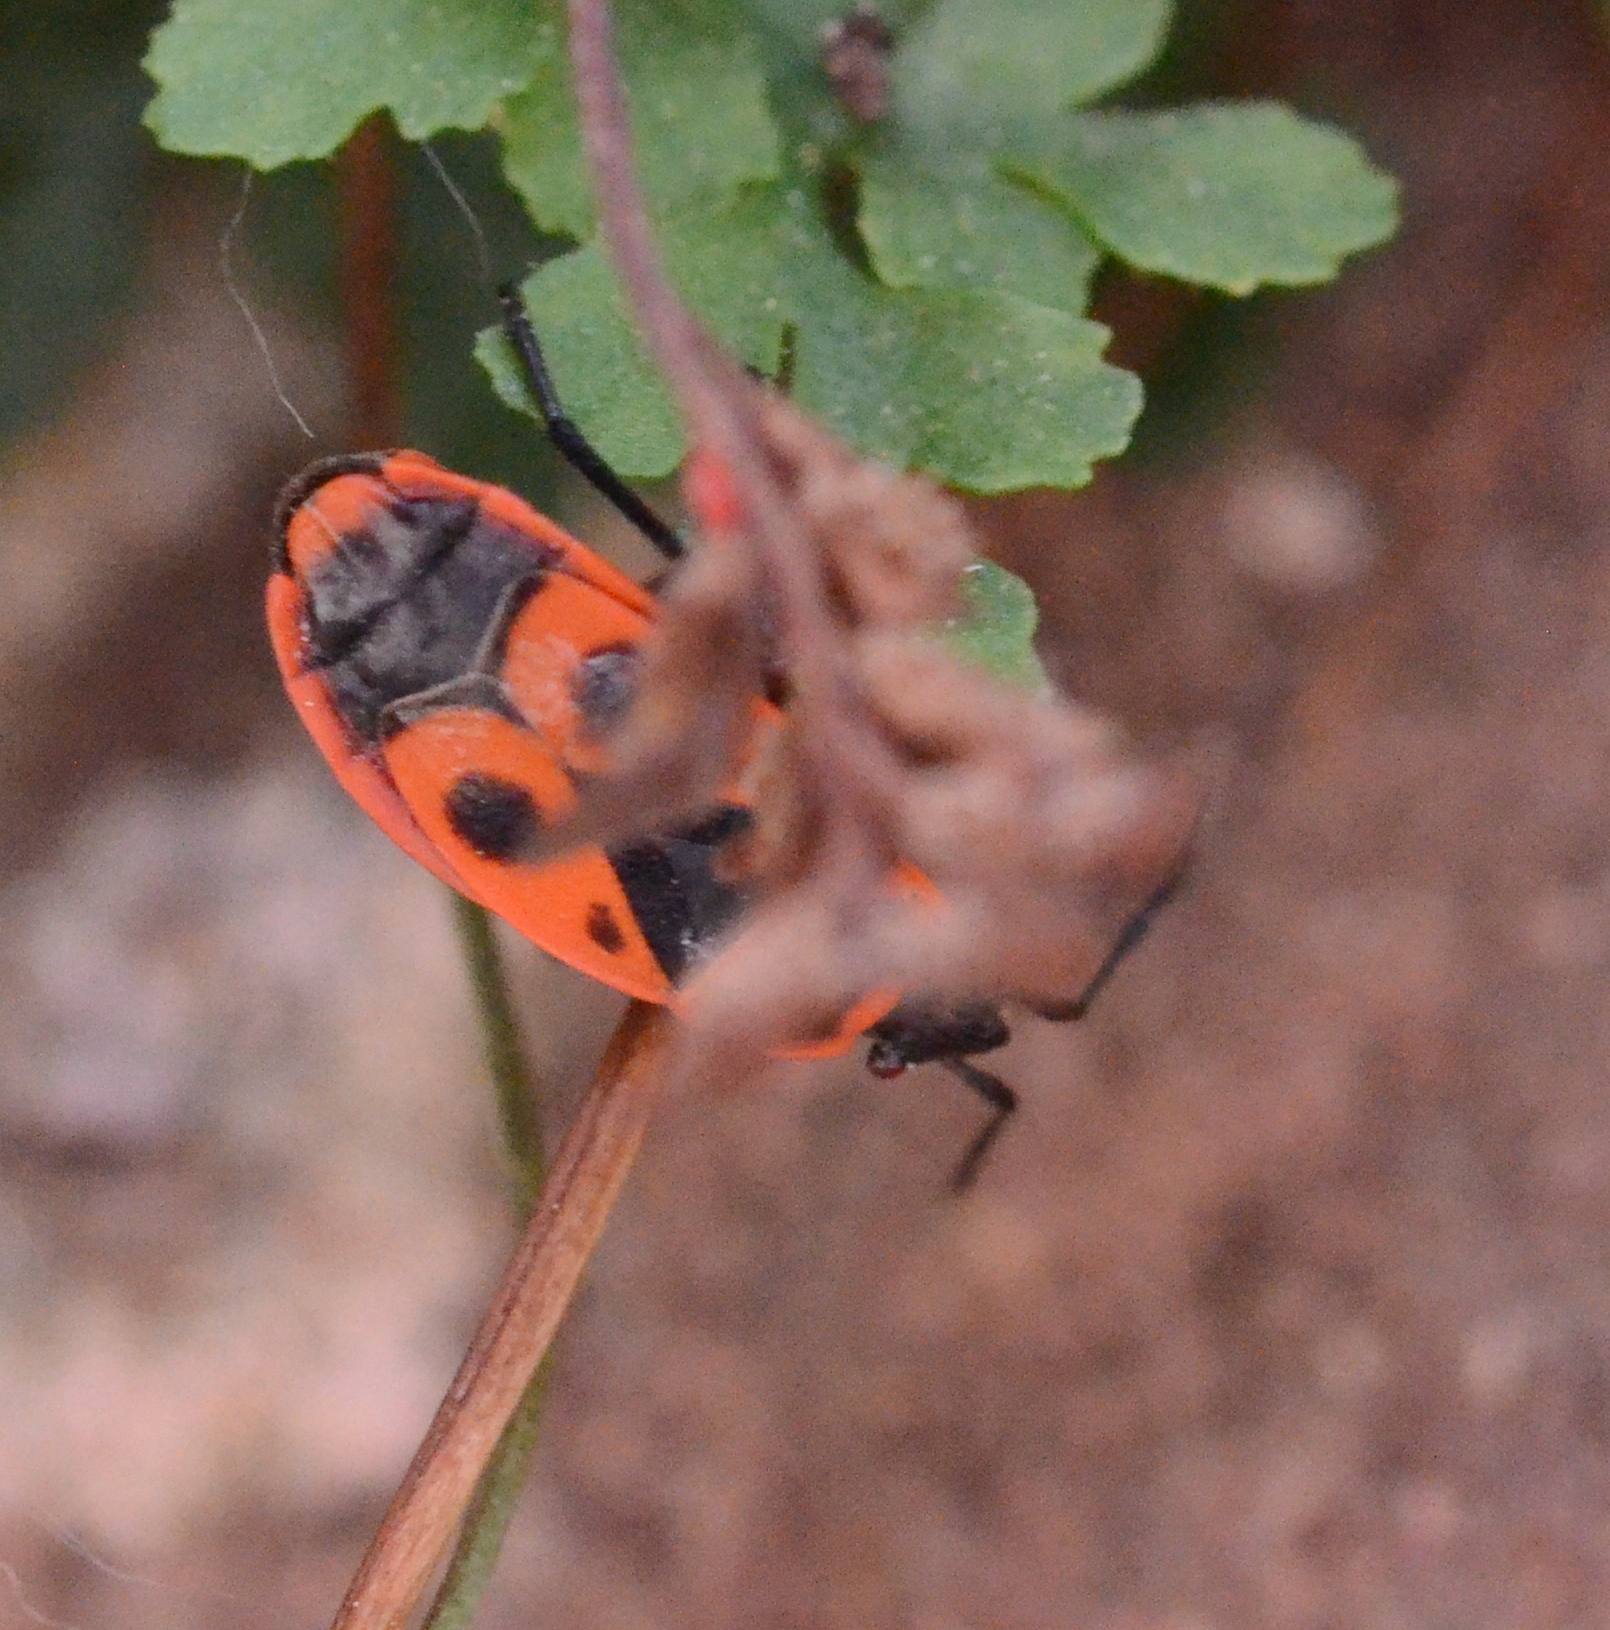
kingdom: Animalia
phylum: Arthropoda
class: Insecta
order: Hemiptera
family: Pyrrhocoridae
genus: Pyrrhocoris
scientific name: Pyrrhocoris apterus
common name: Firebug
